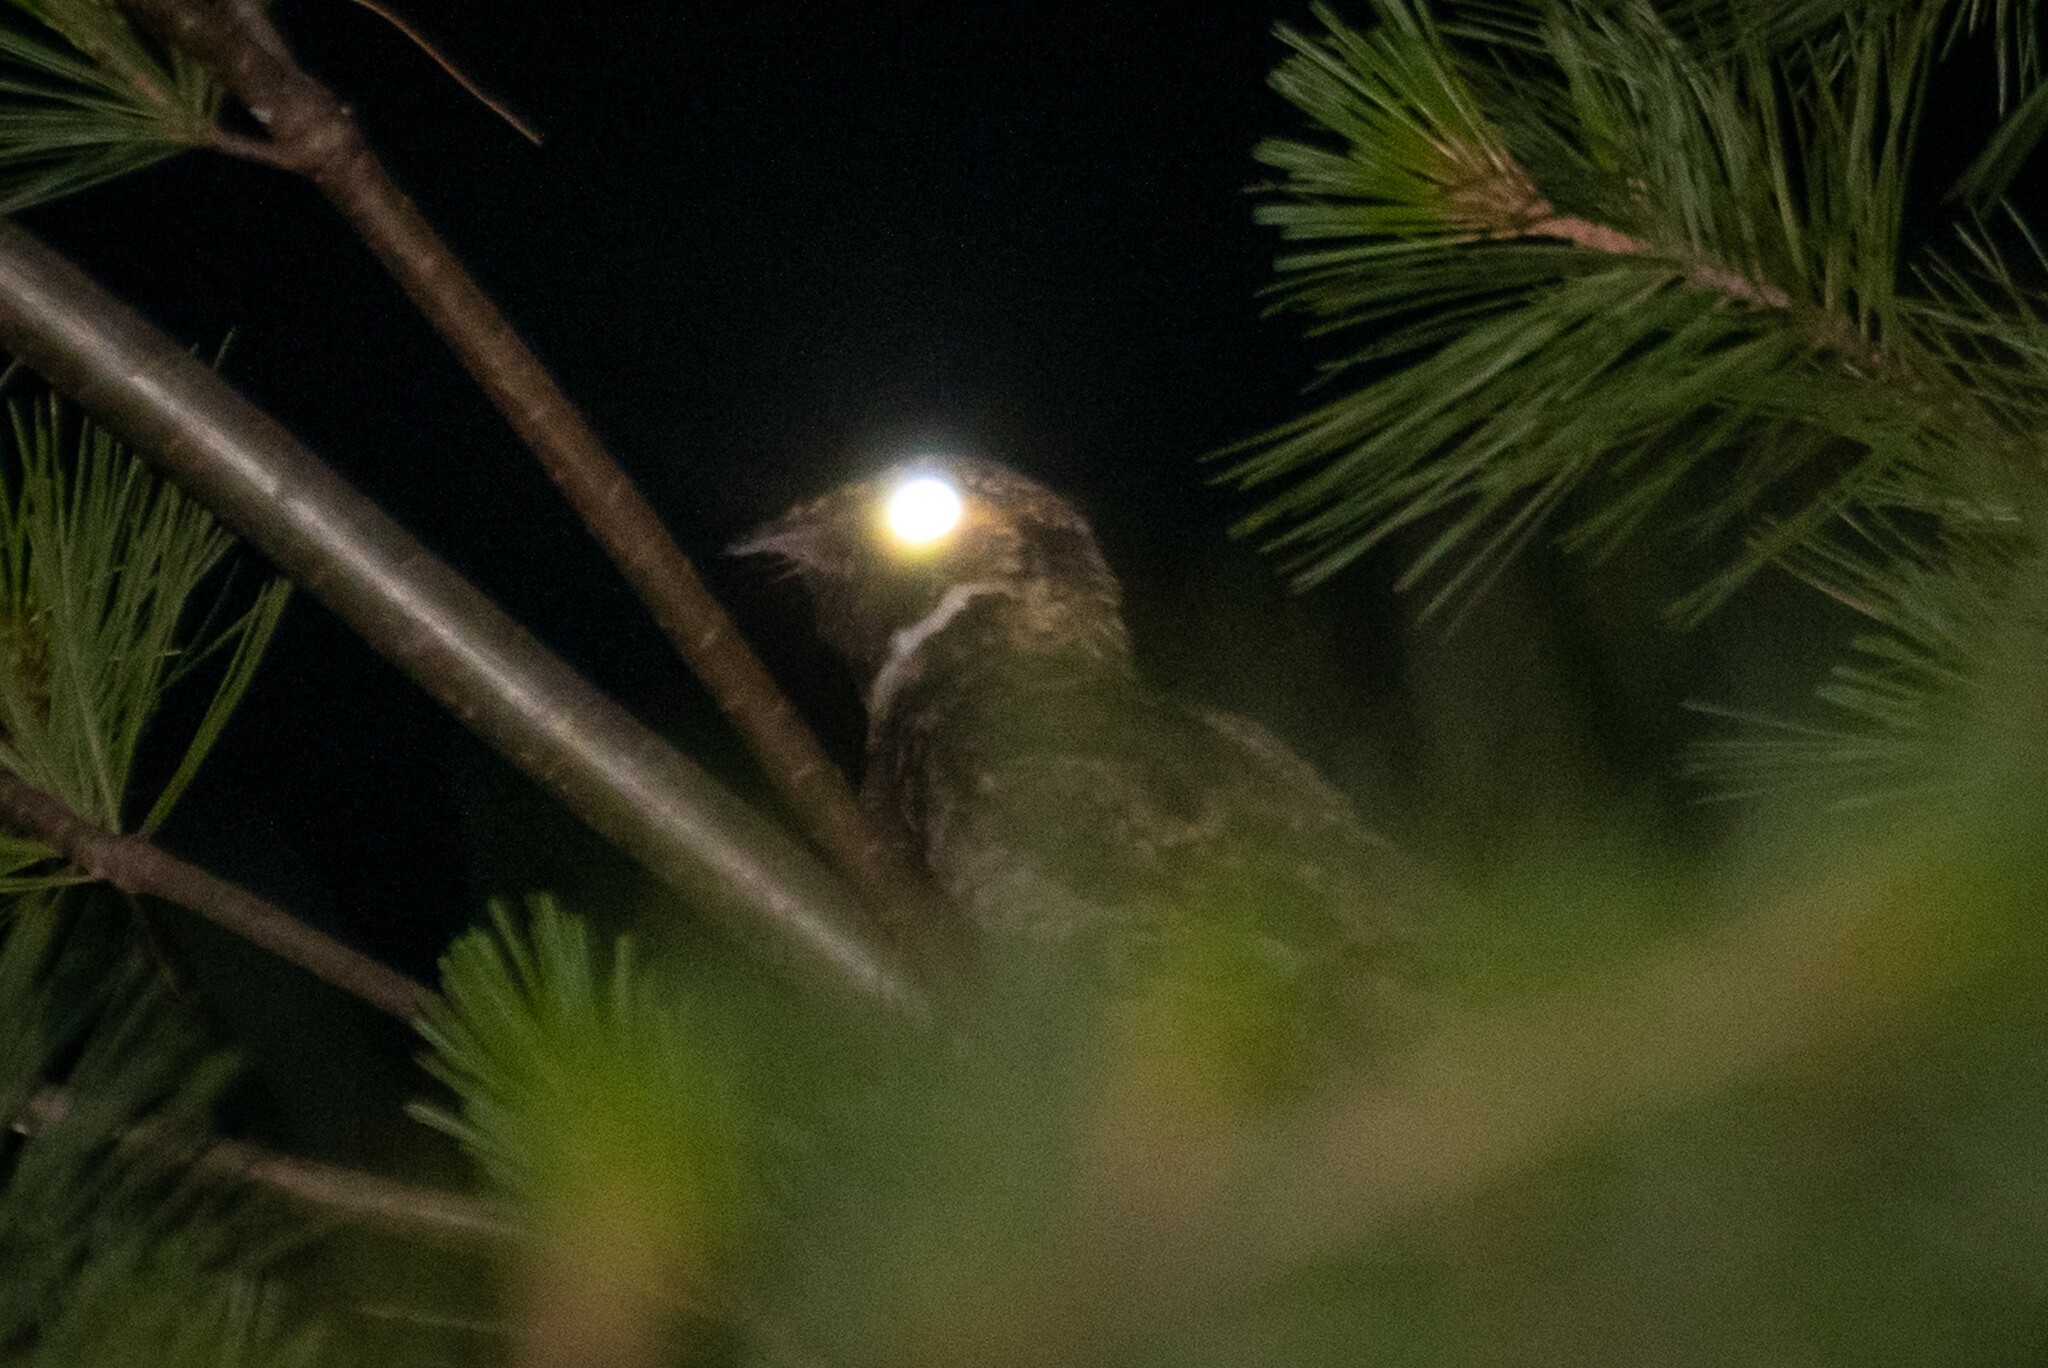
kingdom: Animalia
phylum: Chordata
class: Aves
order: Caprimulgiformes
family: Caprimulgidae
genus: Antrostomus
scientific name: Antrostomus vociferus
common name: Eastern whip-poor-will
